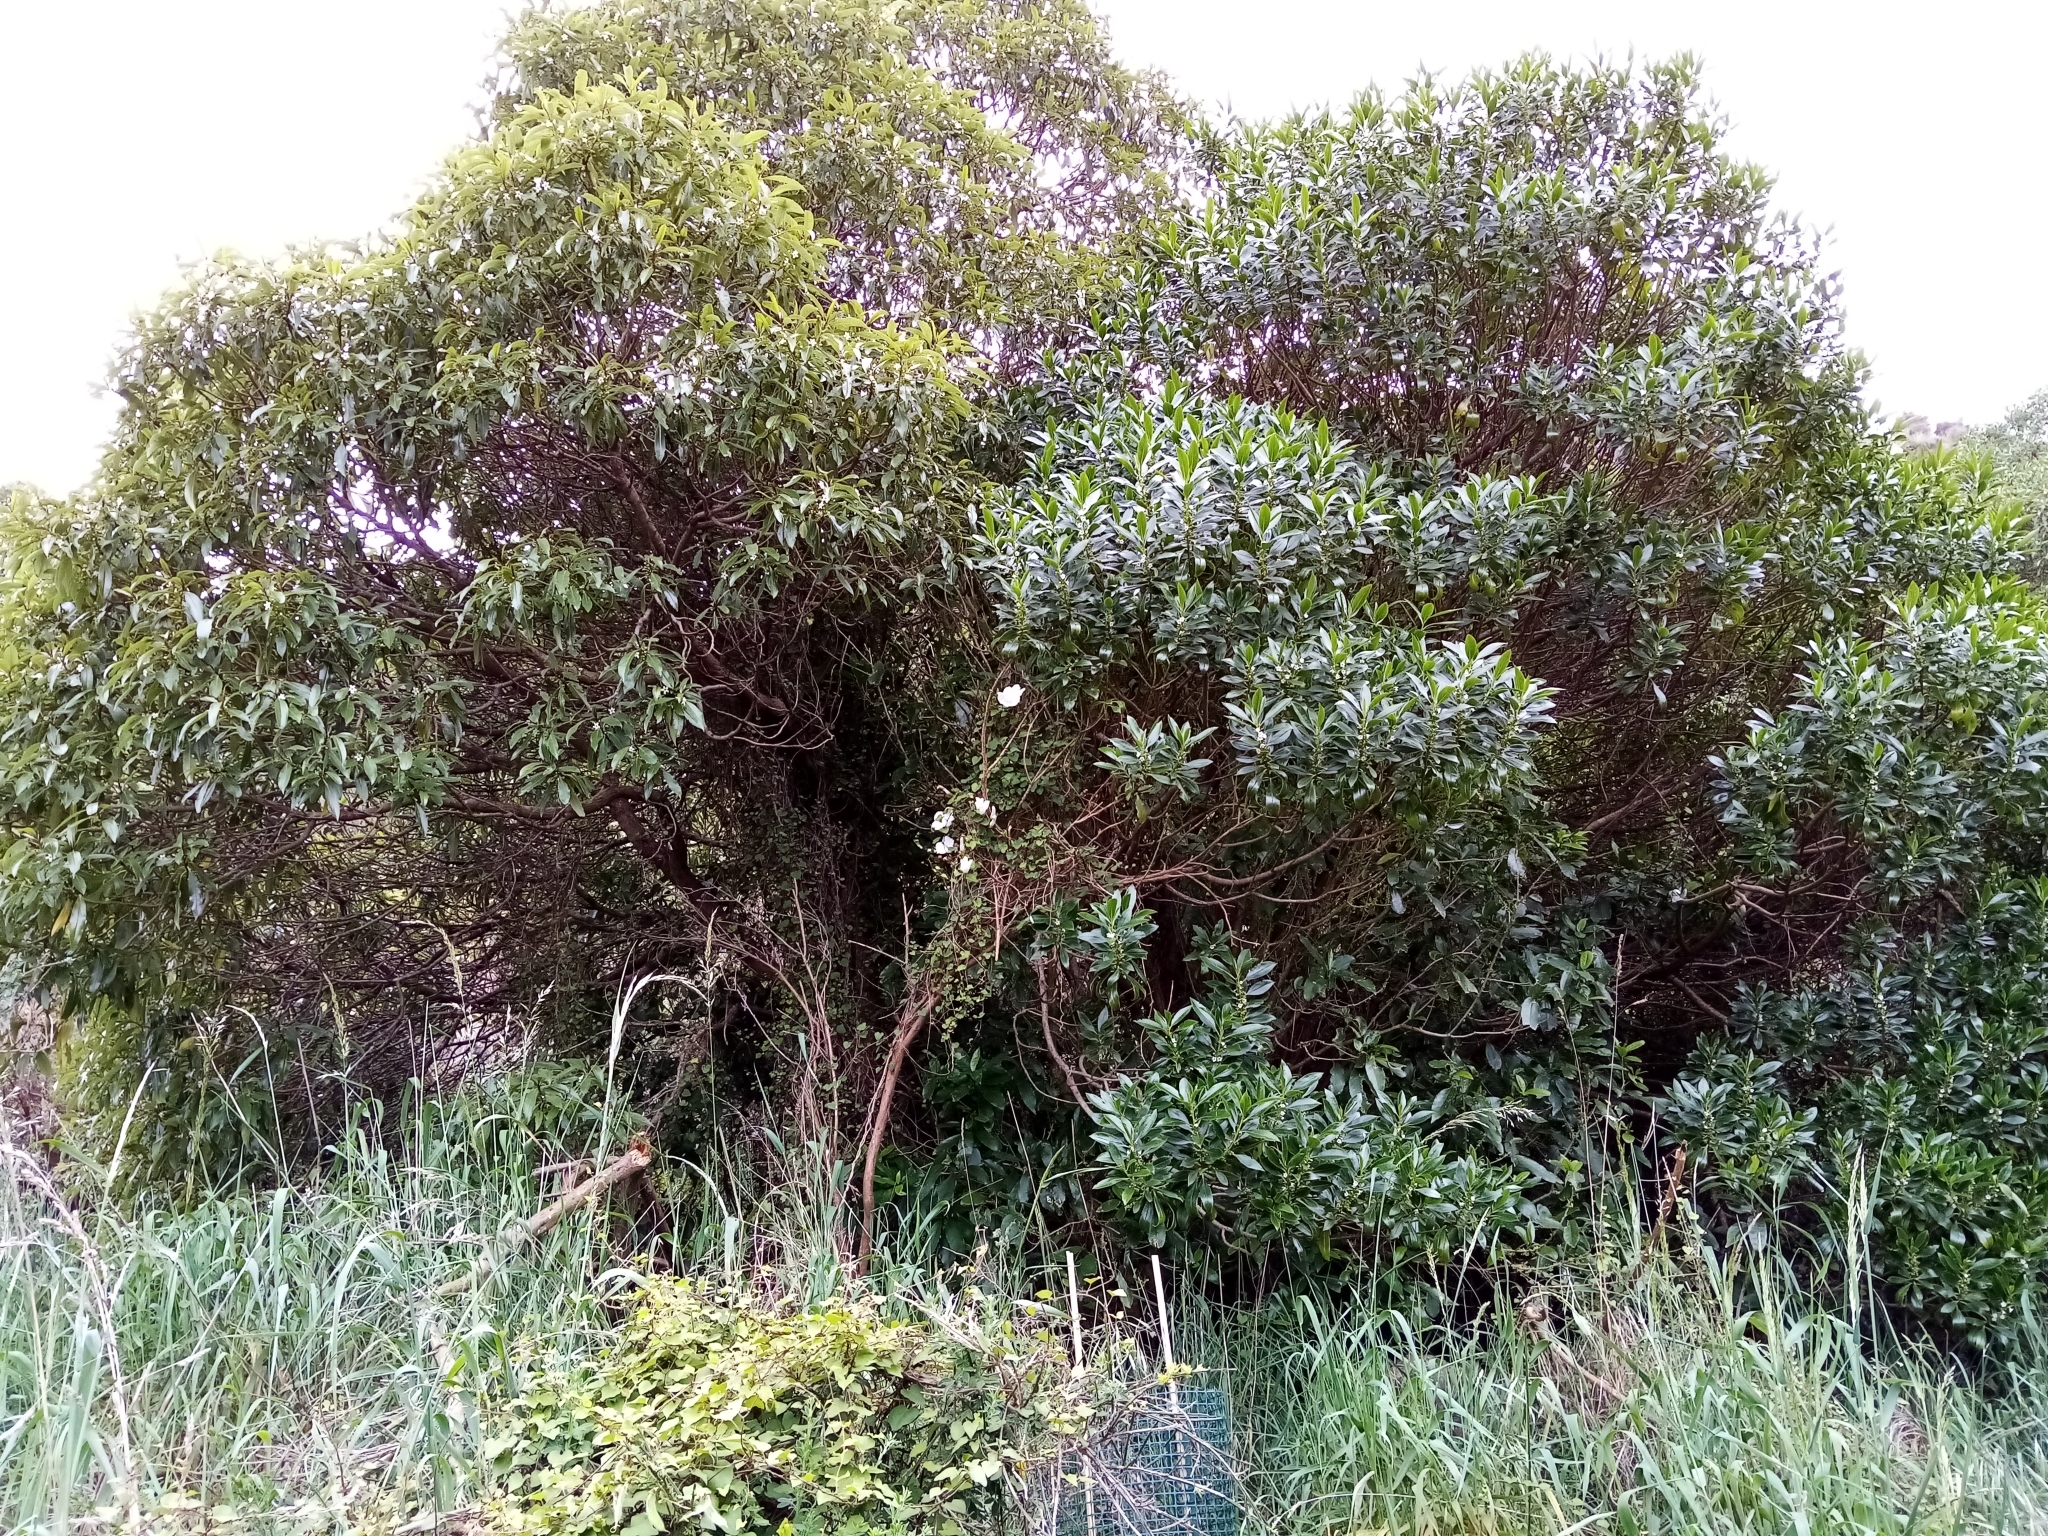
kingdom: Plantae
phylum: Tracheophyta
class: Magnoliopsida
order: Lamiales
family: Scrophulariaceae
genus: Myoporum
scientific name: Myoporum insulare
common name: Common boobialla
